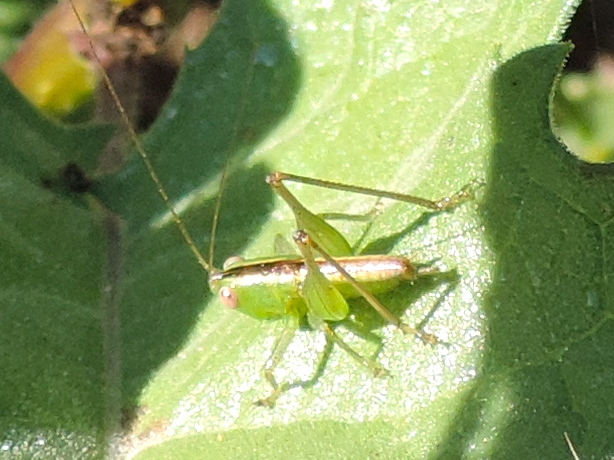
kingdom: Animalia
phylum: Arthropoda
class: Insecta
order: Orthoptera
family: Tettigoniidae
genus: Conocephalus
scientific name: Conocephalus
